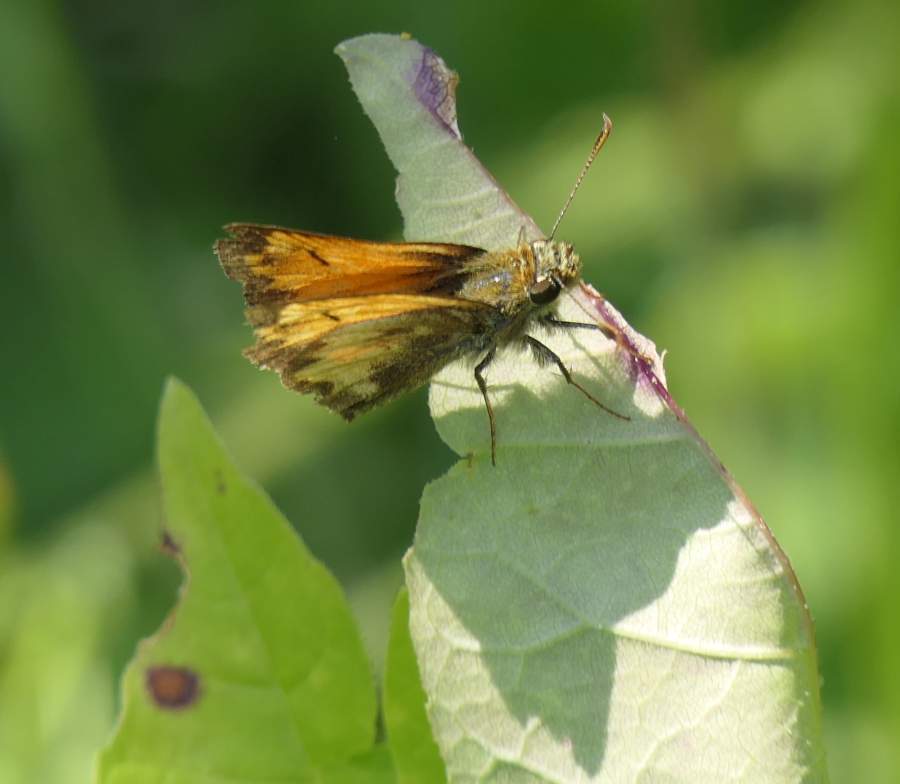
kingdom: Animalia
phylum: Arthropoda
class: Insecta
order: Lepidoptera
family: Hesperiidae
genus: Lon
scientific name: Lon hobomok
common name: Hobomok skipper
